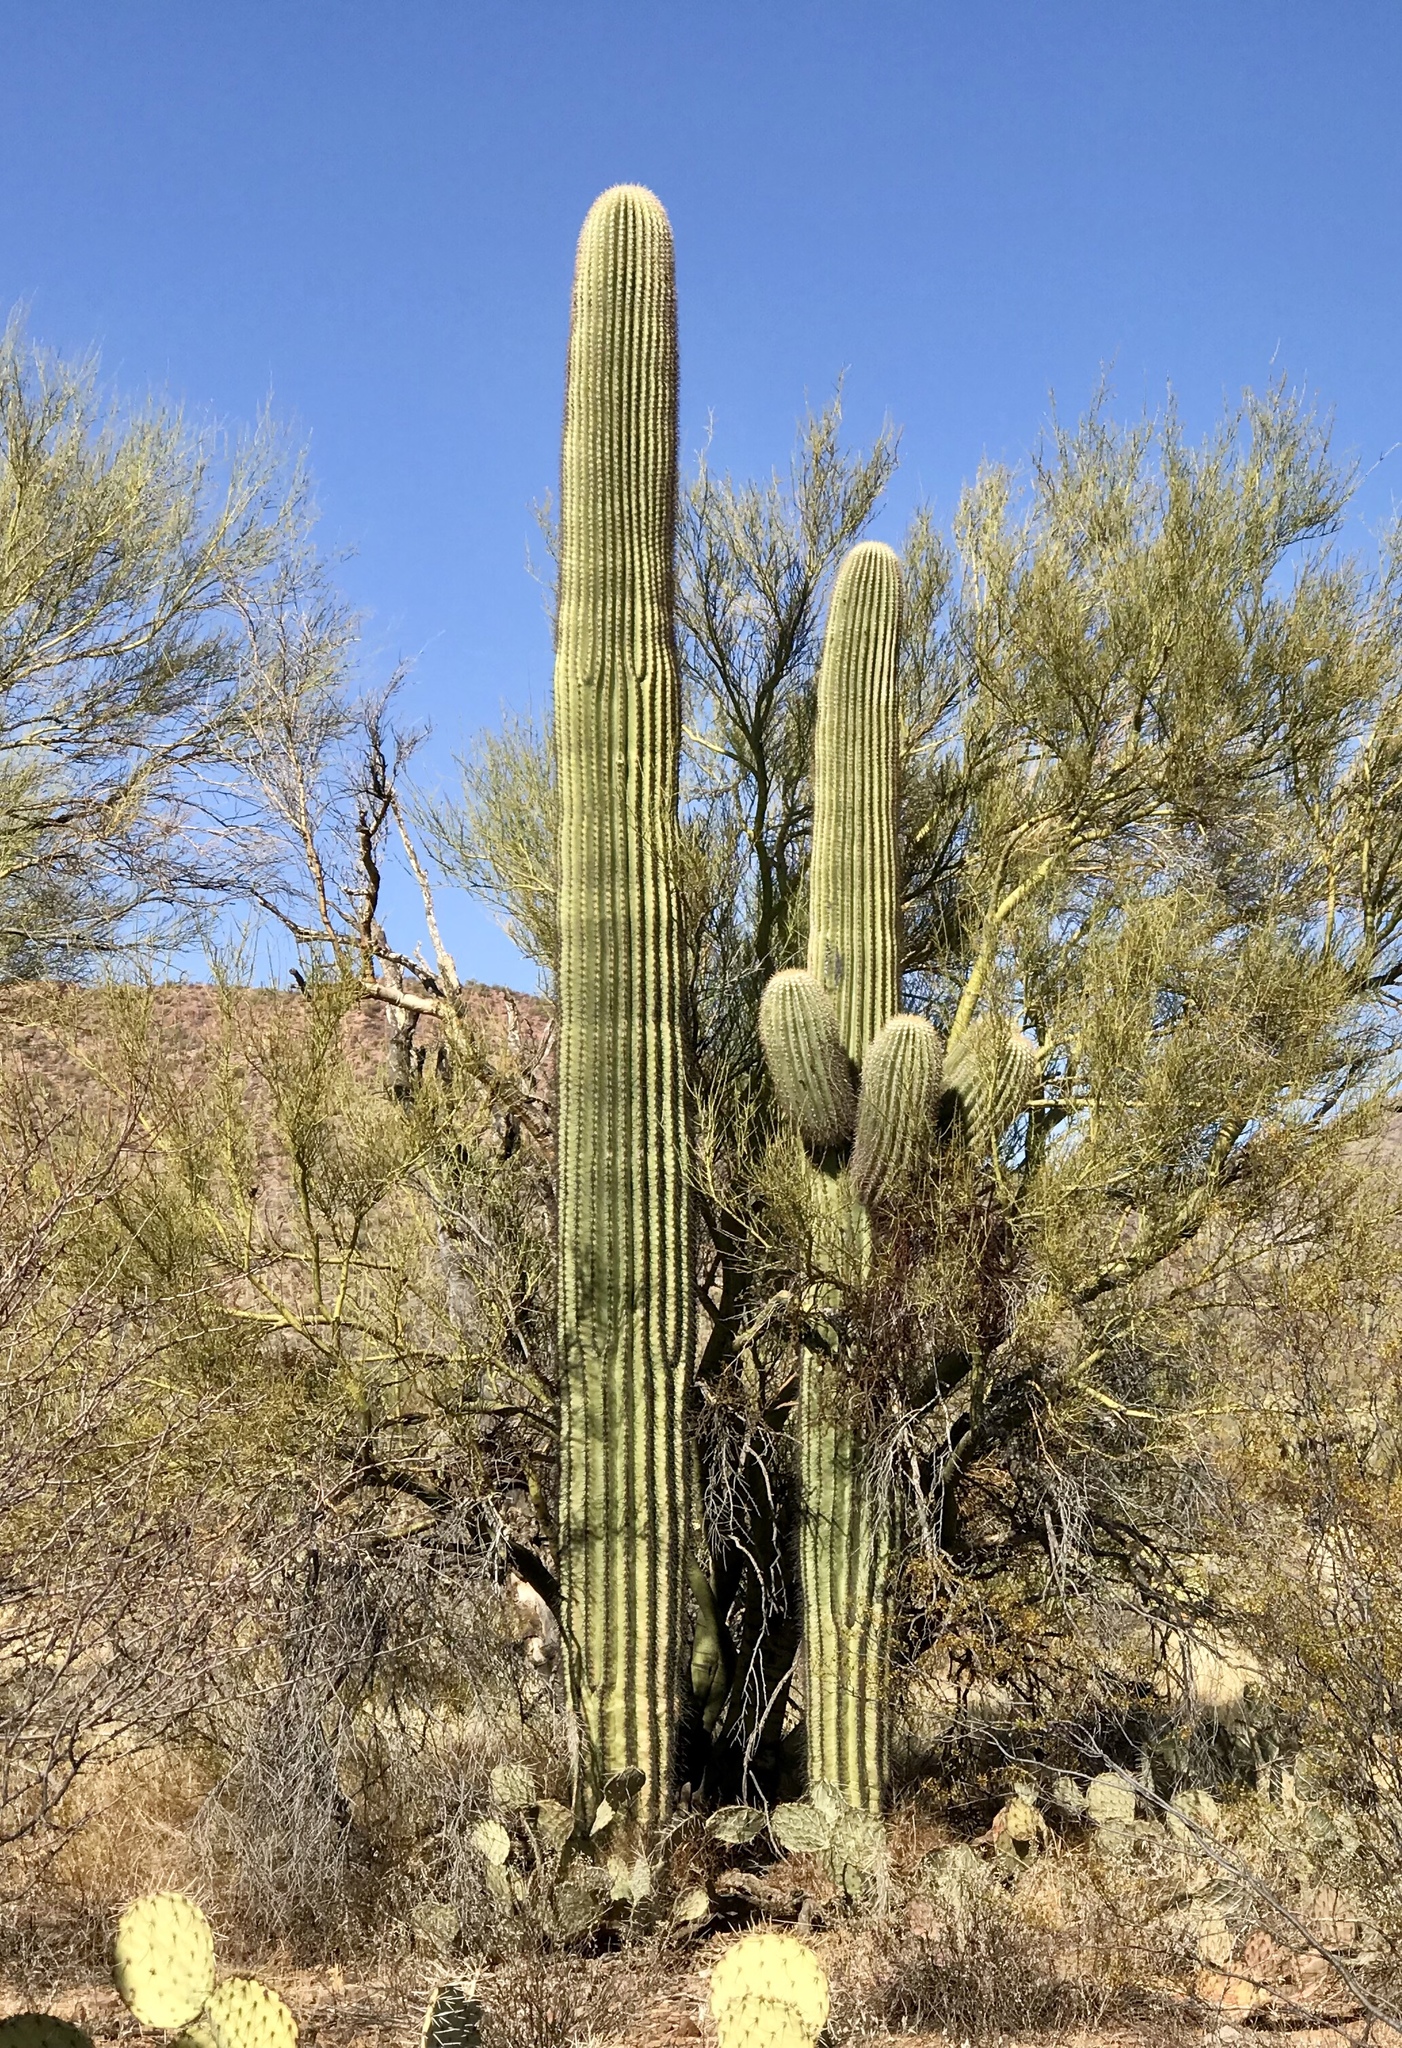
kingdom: Plantae
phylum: Tracheophyta
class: Magnoliopsida
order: Caryophyllales
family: Cactaceae
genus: Carnegiea
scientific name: Carnegiea gigantea
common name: Saguaro
